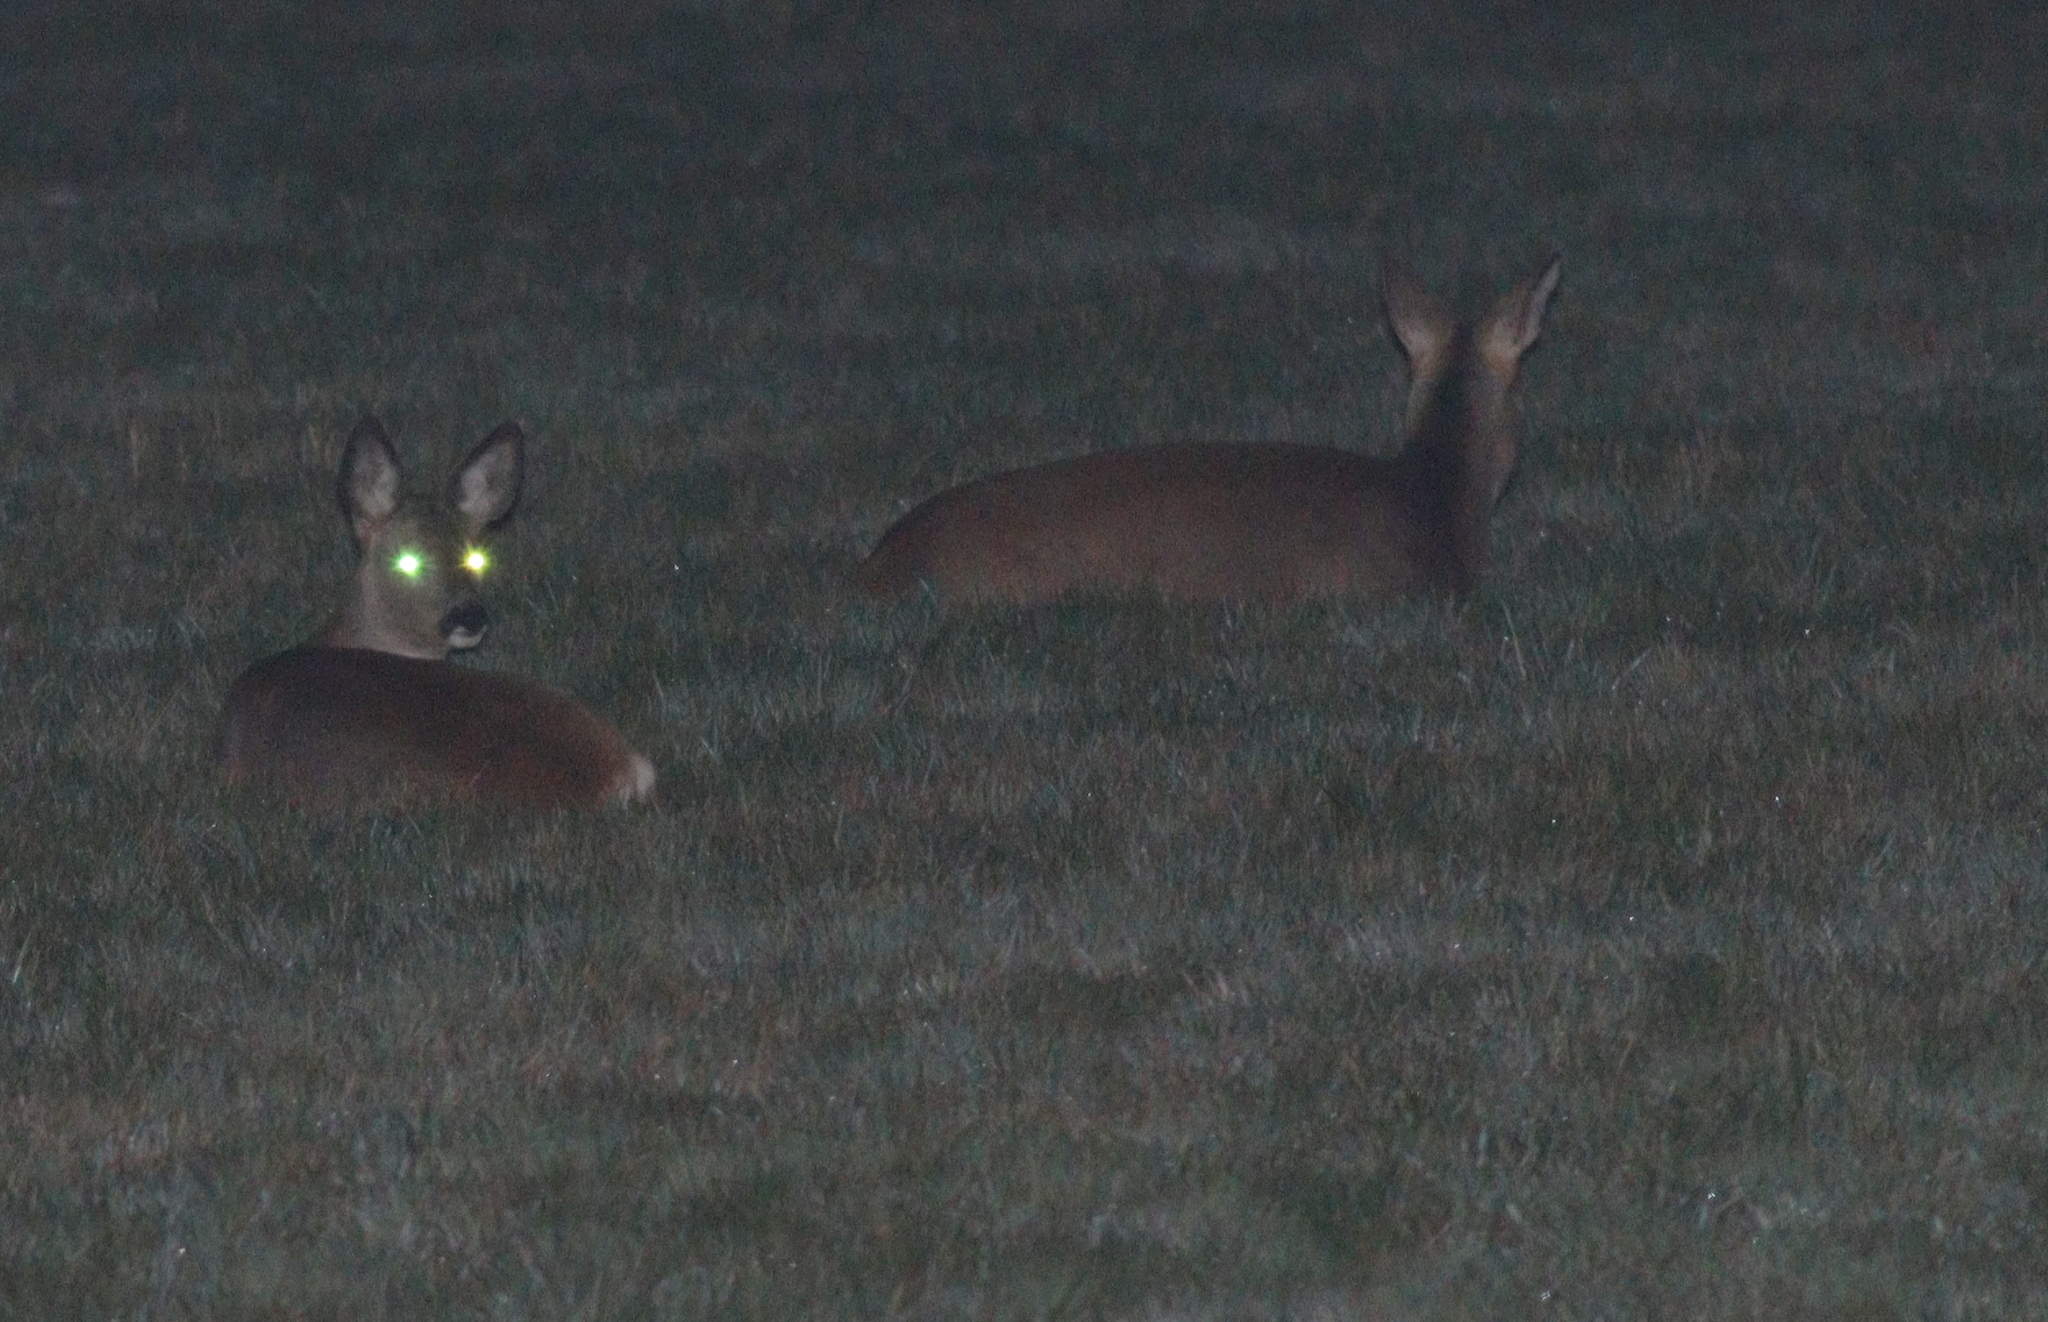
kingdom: Animalia
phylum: Chordata
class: Mammalia
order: Artiodactyla
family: Cervidae
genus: Capreolus
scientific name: Capreolus capreolus
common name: Western roe deer
